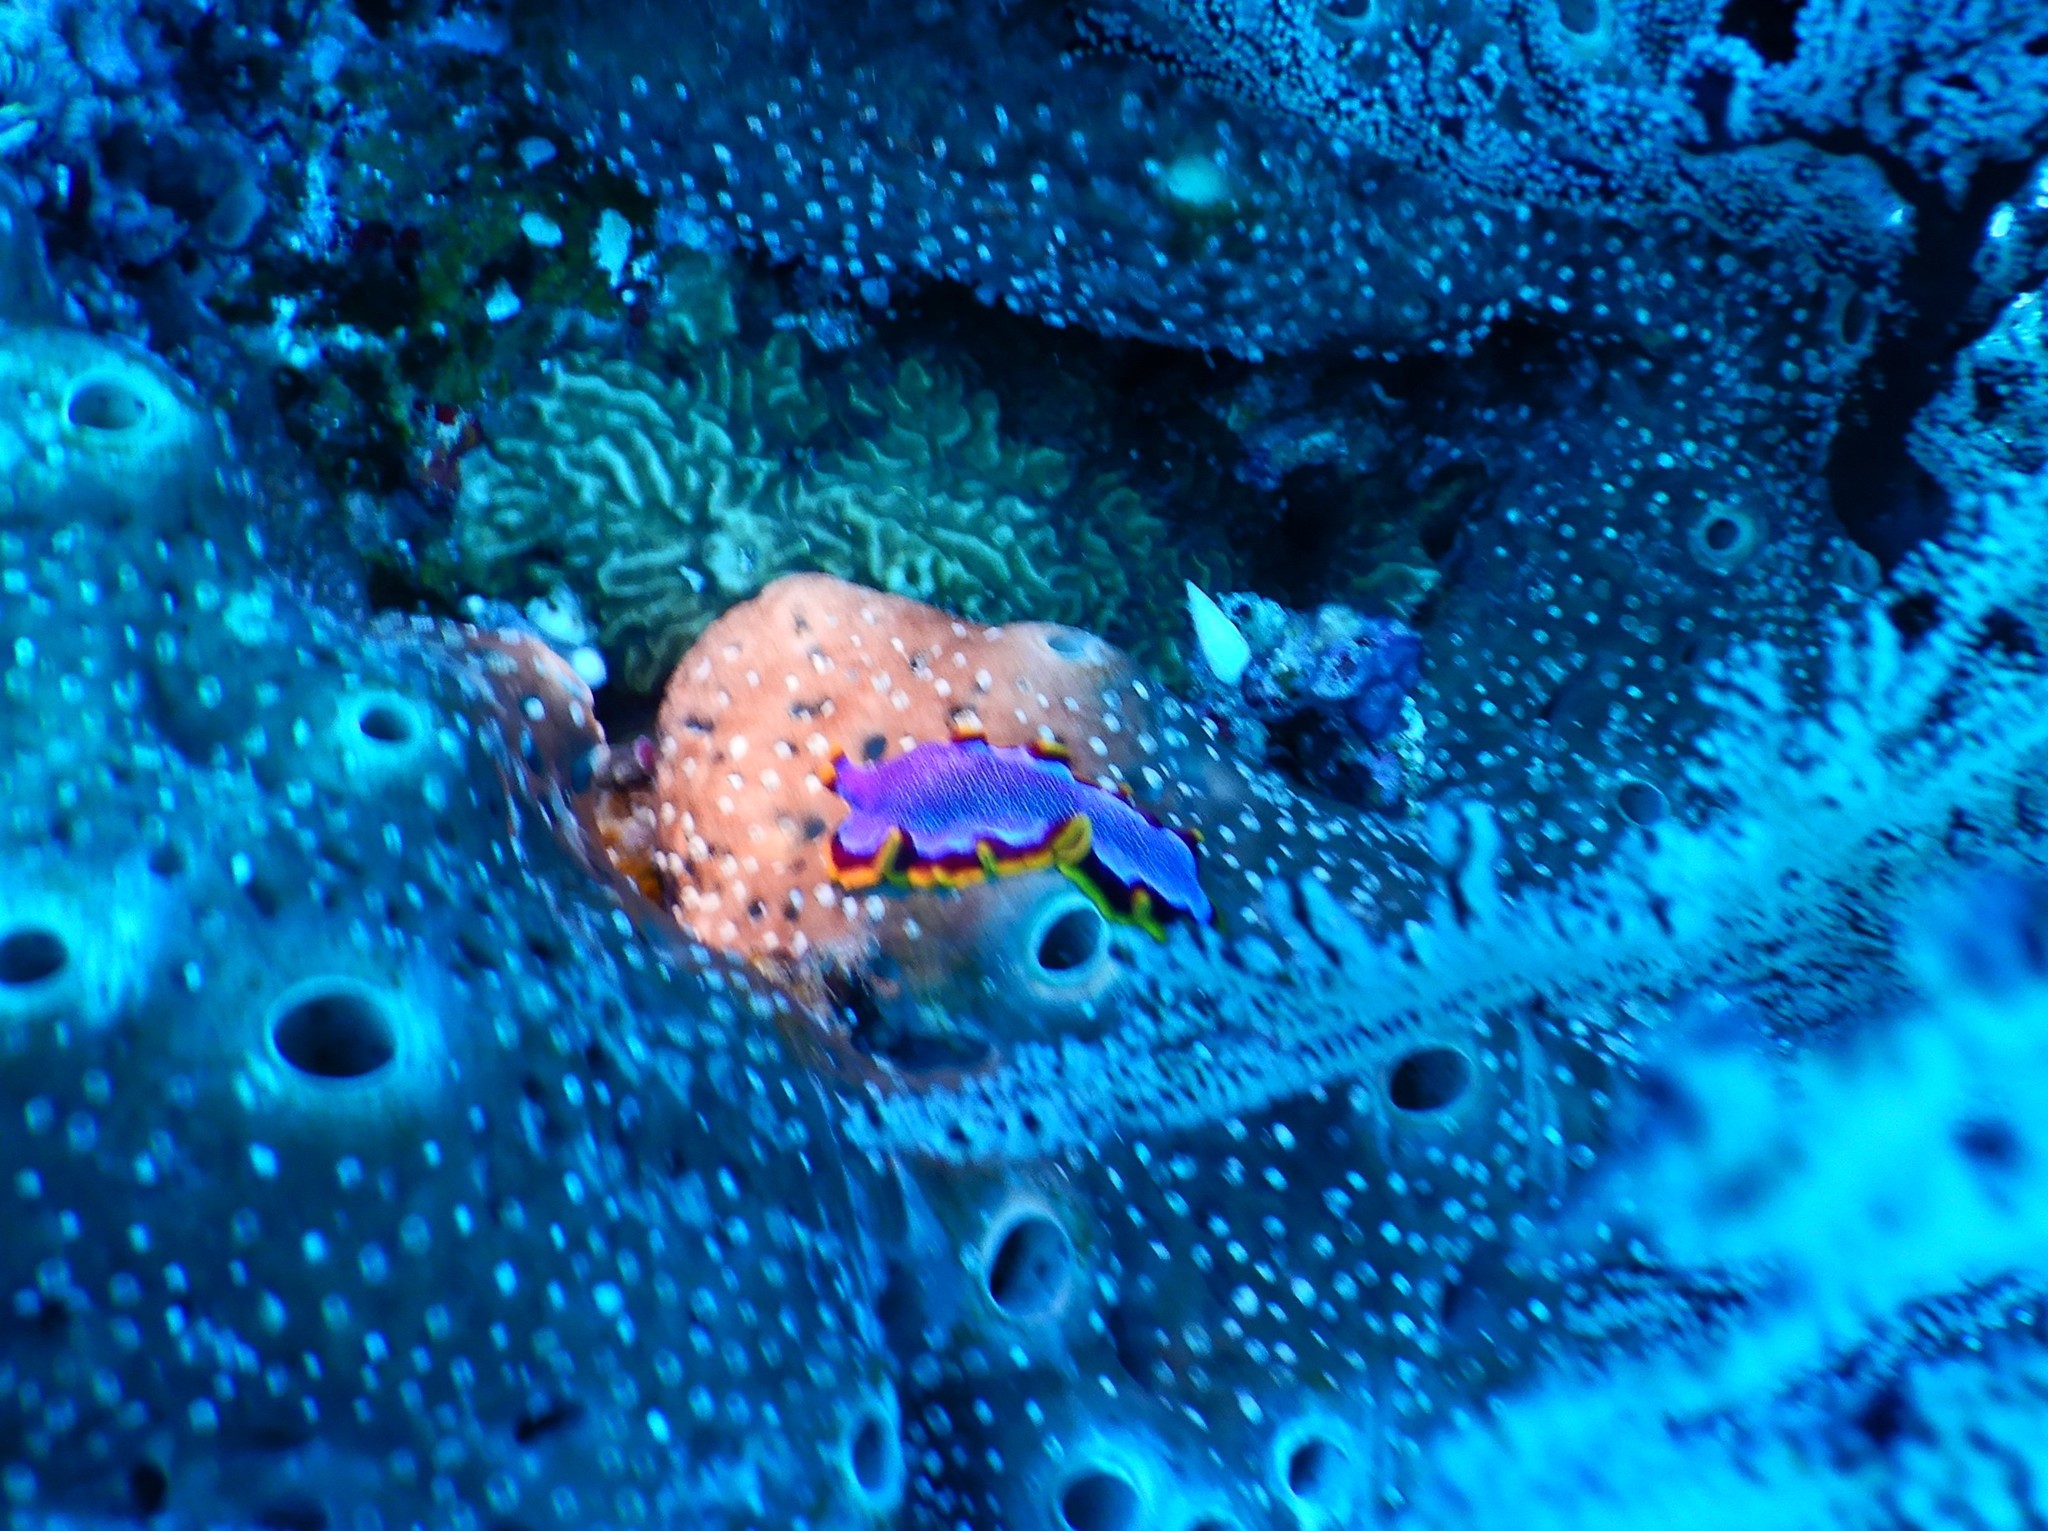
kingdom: Animalia
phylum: Platyhelminthes
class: Turbellaria
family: Pseudocerotidae
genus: Pseudoceros
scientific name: Pseudoceros ferrugineus
